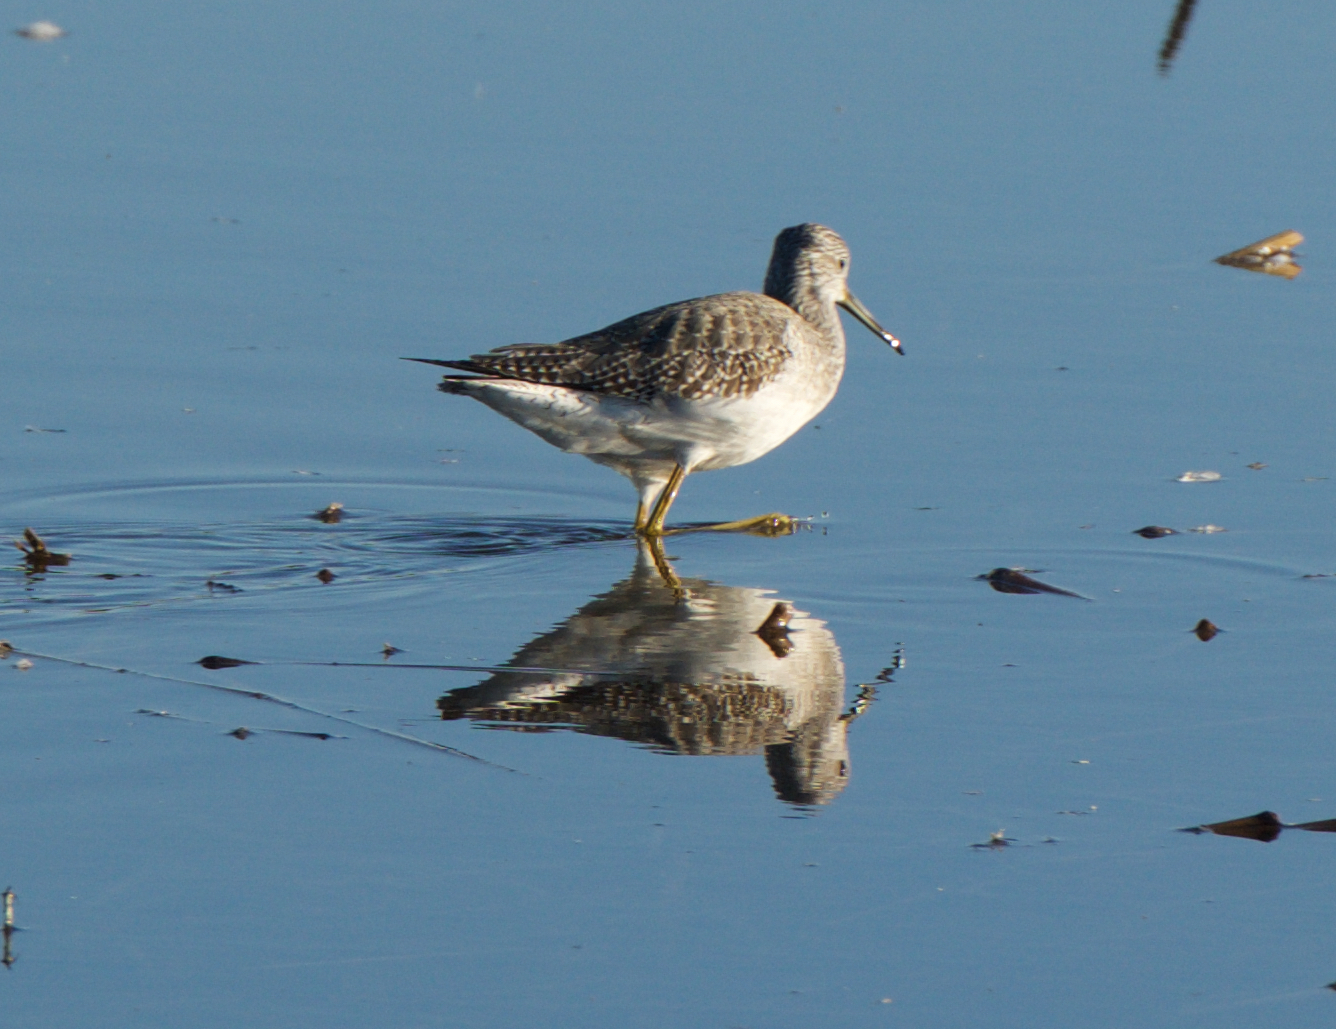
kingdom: Animalia
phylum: Chordata
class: Aves
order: Charadriiformes
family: Scolopacidae
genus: Tringa
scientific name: Tringa melanoleuca
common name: Greater yellowlegs
